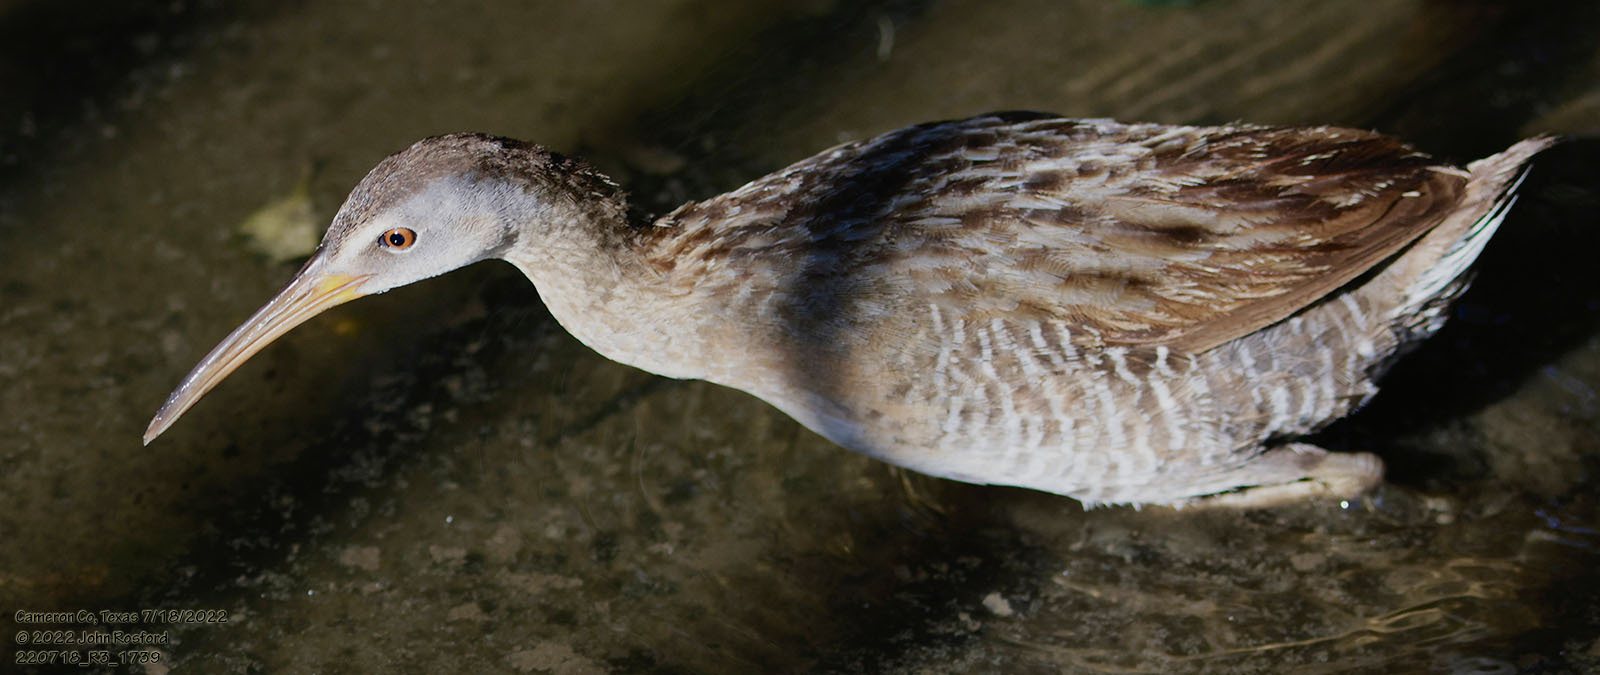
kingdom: Animalia
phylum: Chordata
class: Aves
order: Gruiformes
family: Rallidae
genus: Rallus
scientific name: Rallus crepitans
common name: Clapper rail
